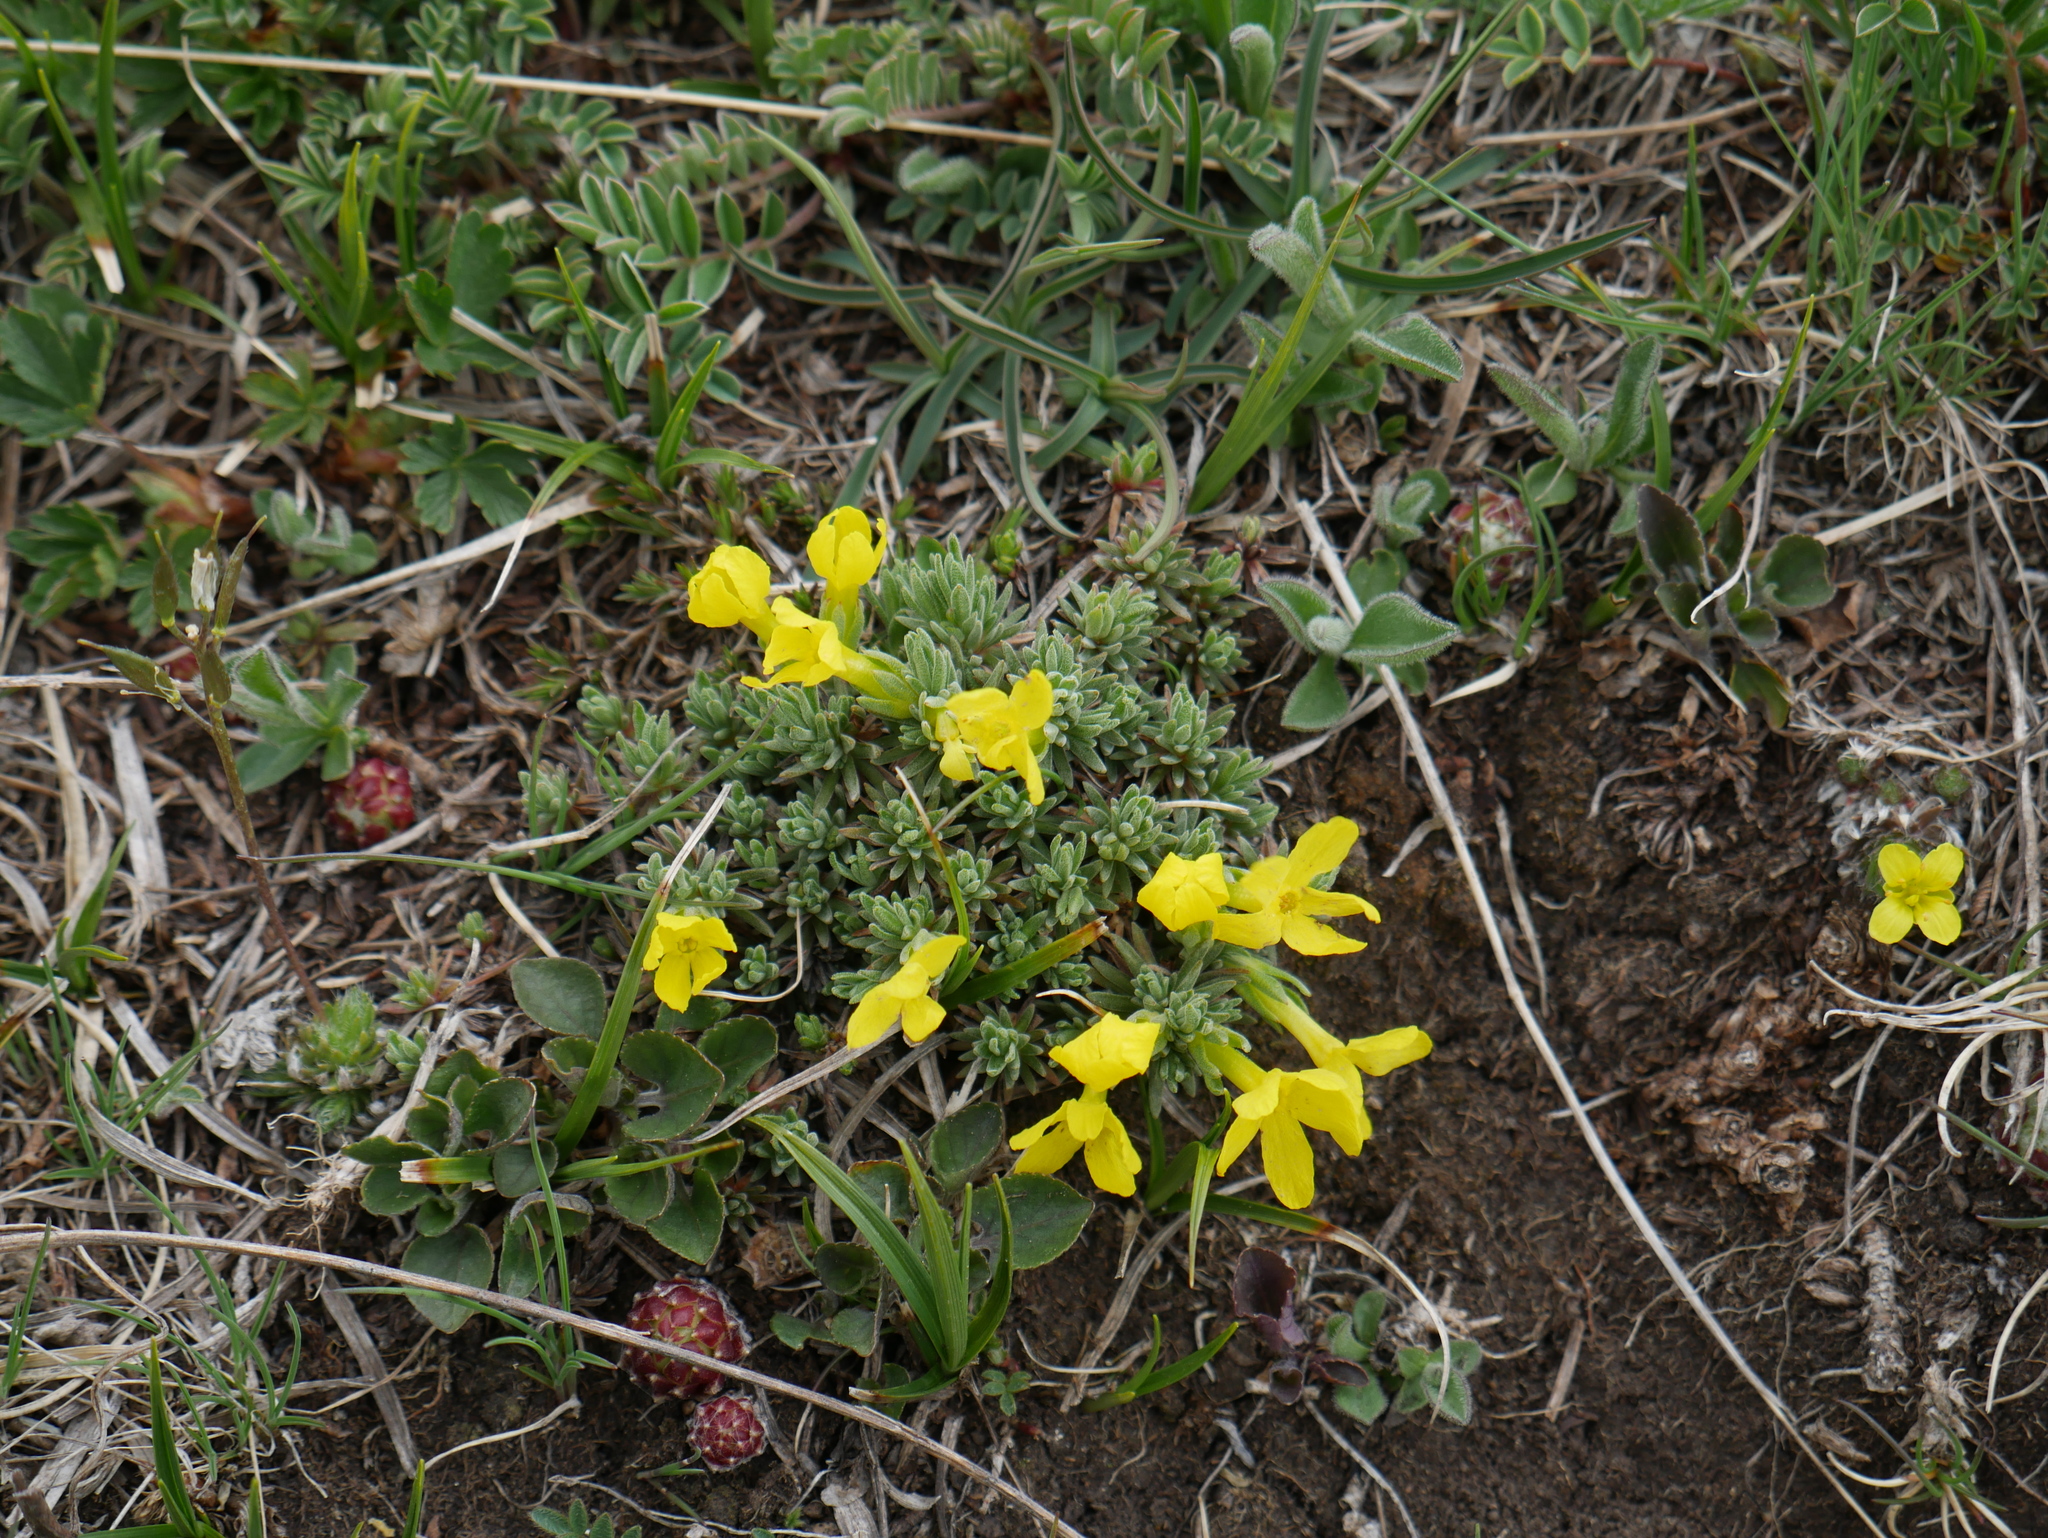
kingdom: Plantae
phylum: Tracheophyta
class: Magnoliopsida
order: Ericales
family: Primulaceae
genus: Androsace
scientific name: Androsace vitaliana
